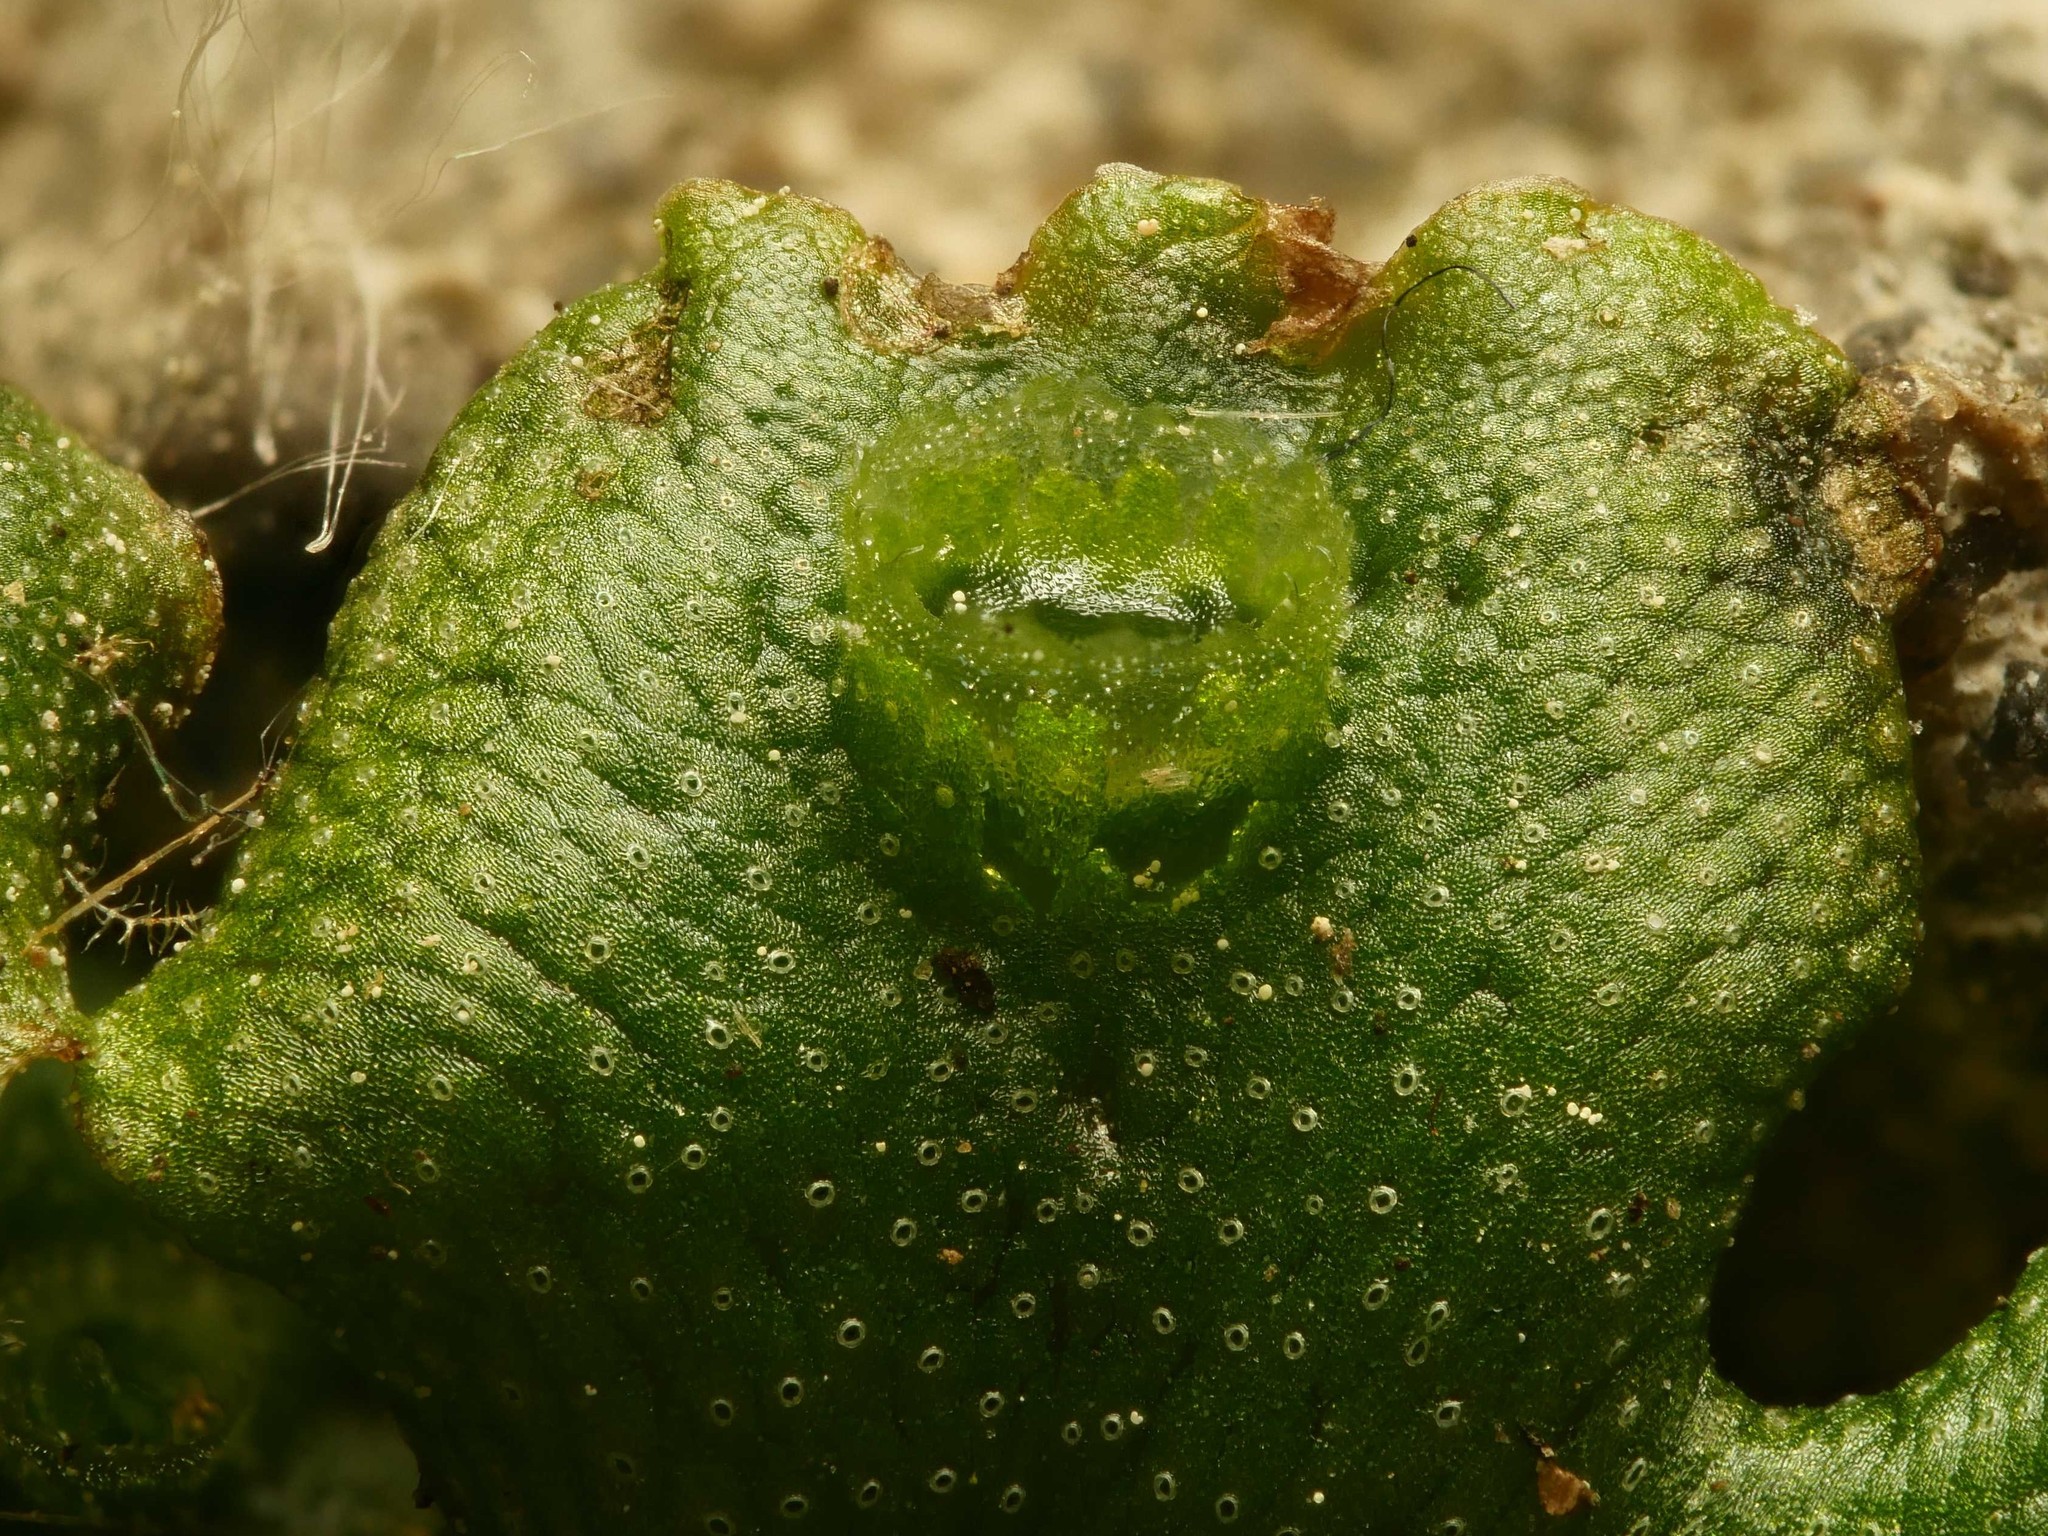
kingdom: Plantae
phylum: Marchantiophyta
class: Marchantiopsida
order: Marchantiales
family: Marchantiaceae
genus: Marchantia
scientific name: Marchantia polymorpha
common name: Common liverwort
